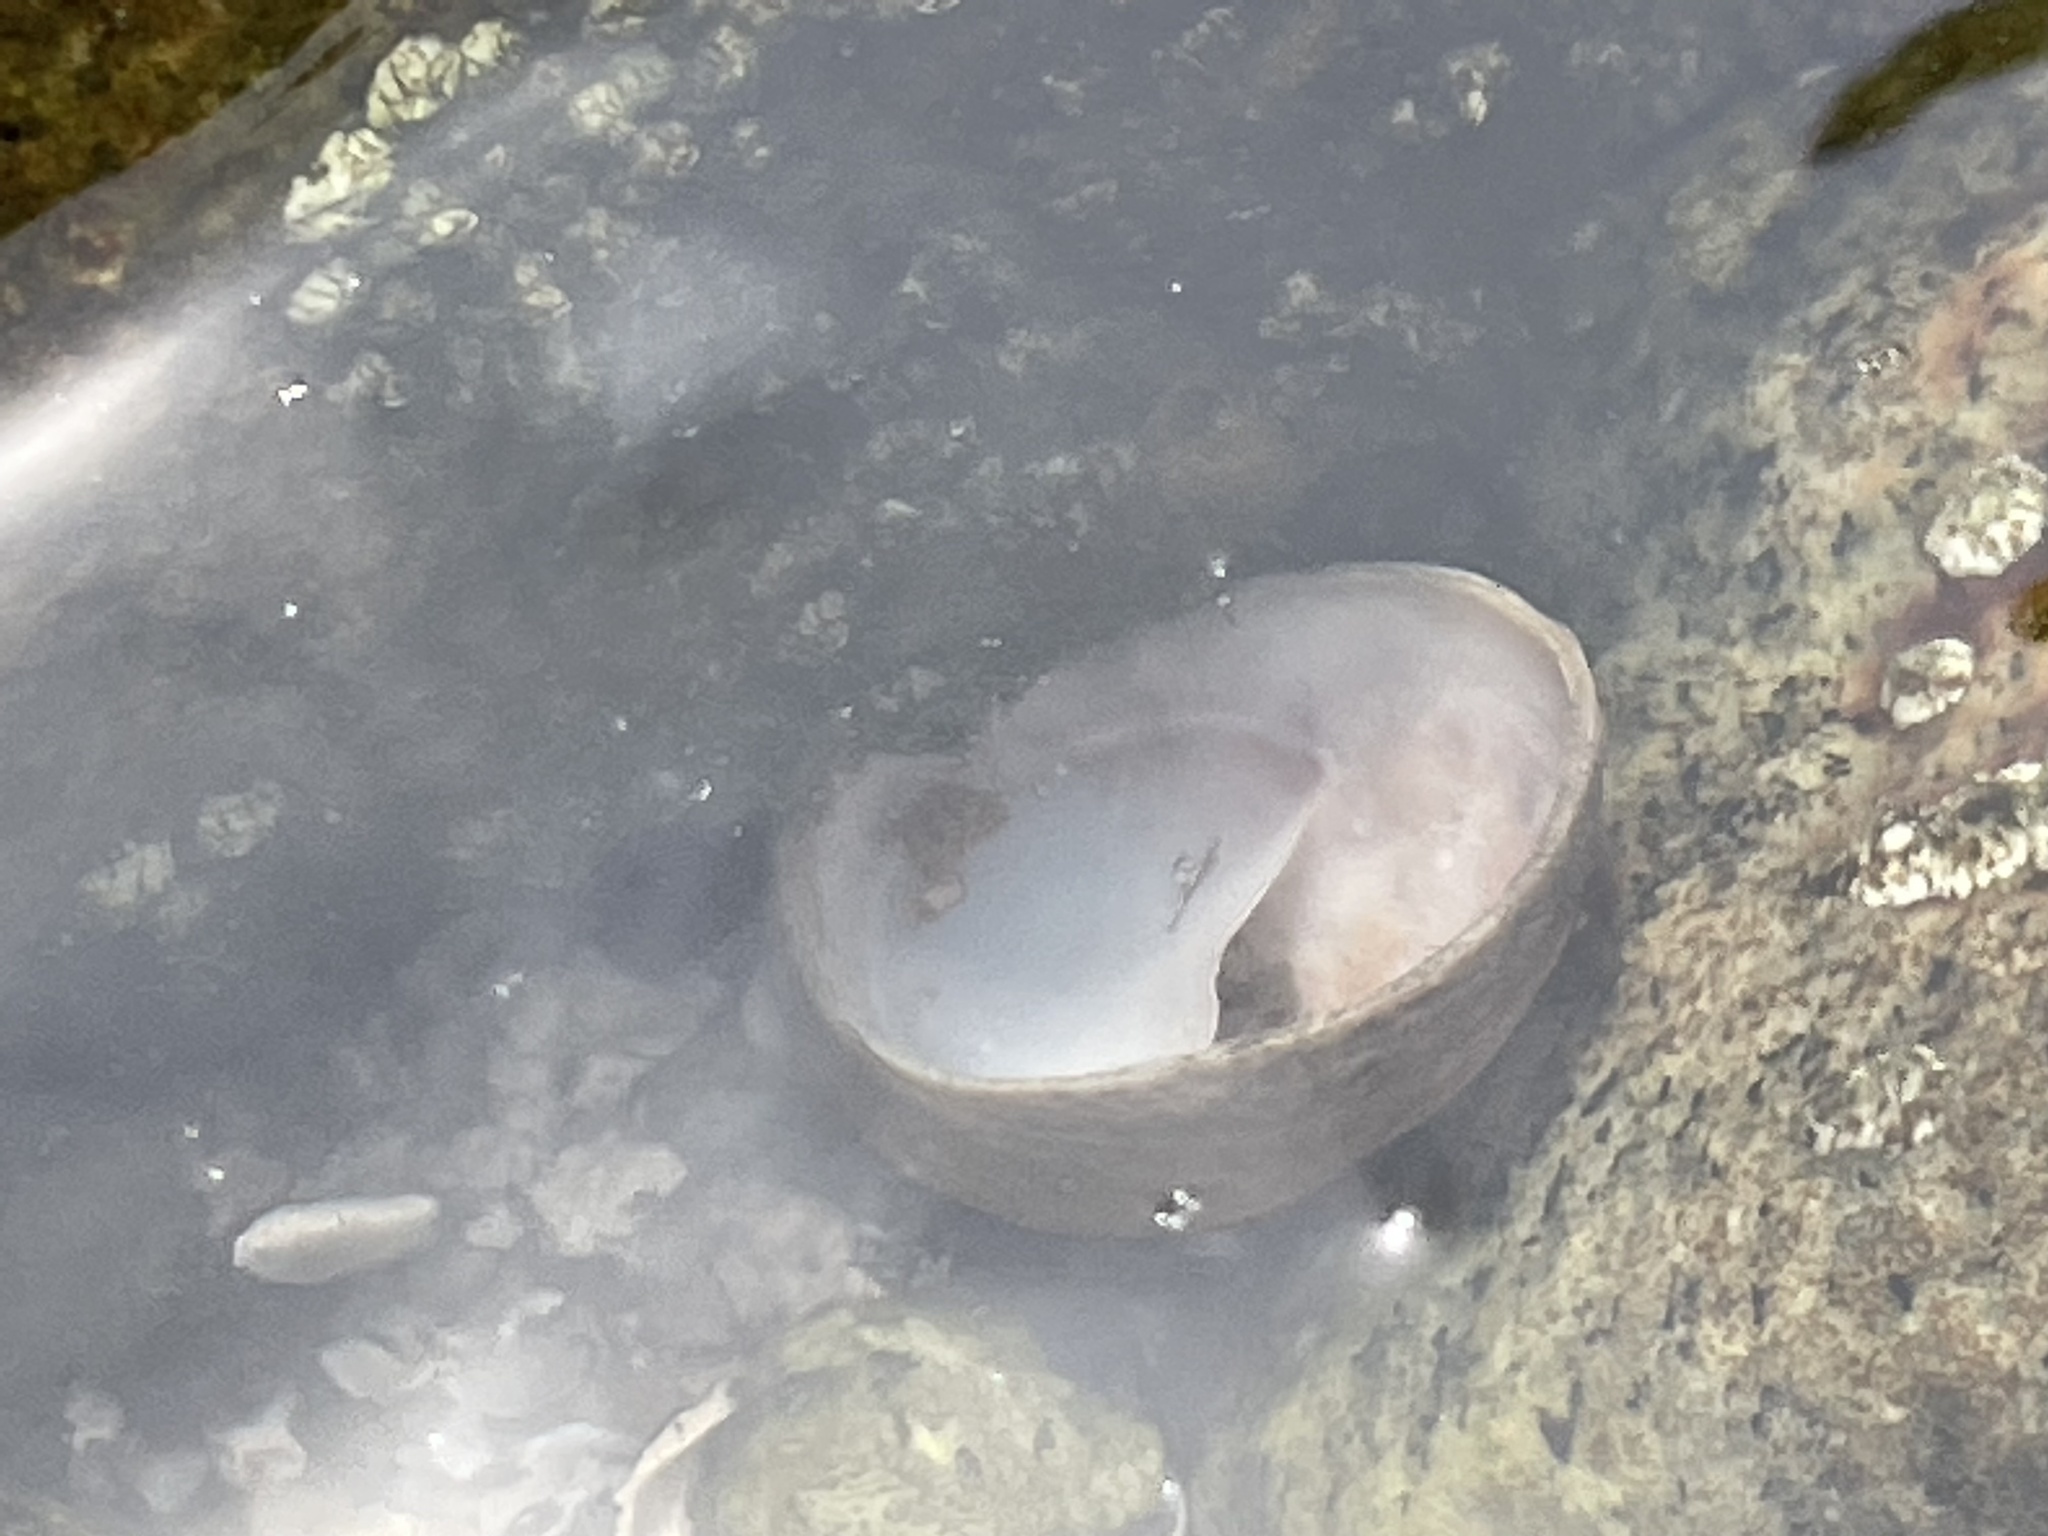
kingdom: Animalia
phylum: Mollusca
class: Gastropoda
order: Littorinimorpha
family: Calyptraeidae
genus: Crepidula
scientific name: Crepidula fornicata
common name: Slipper limpet
